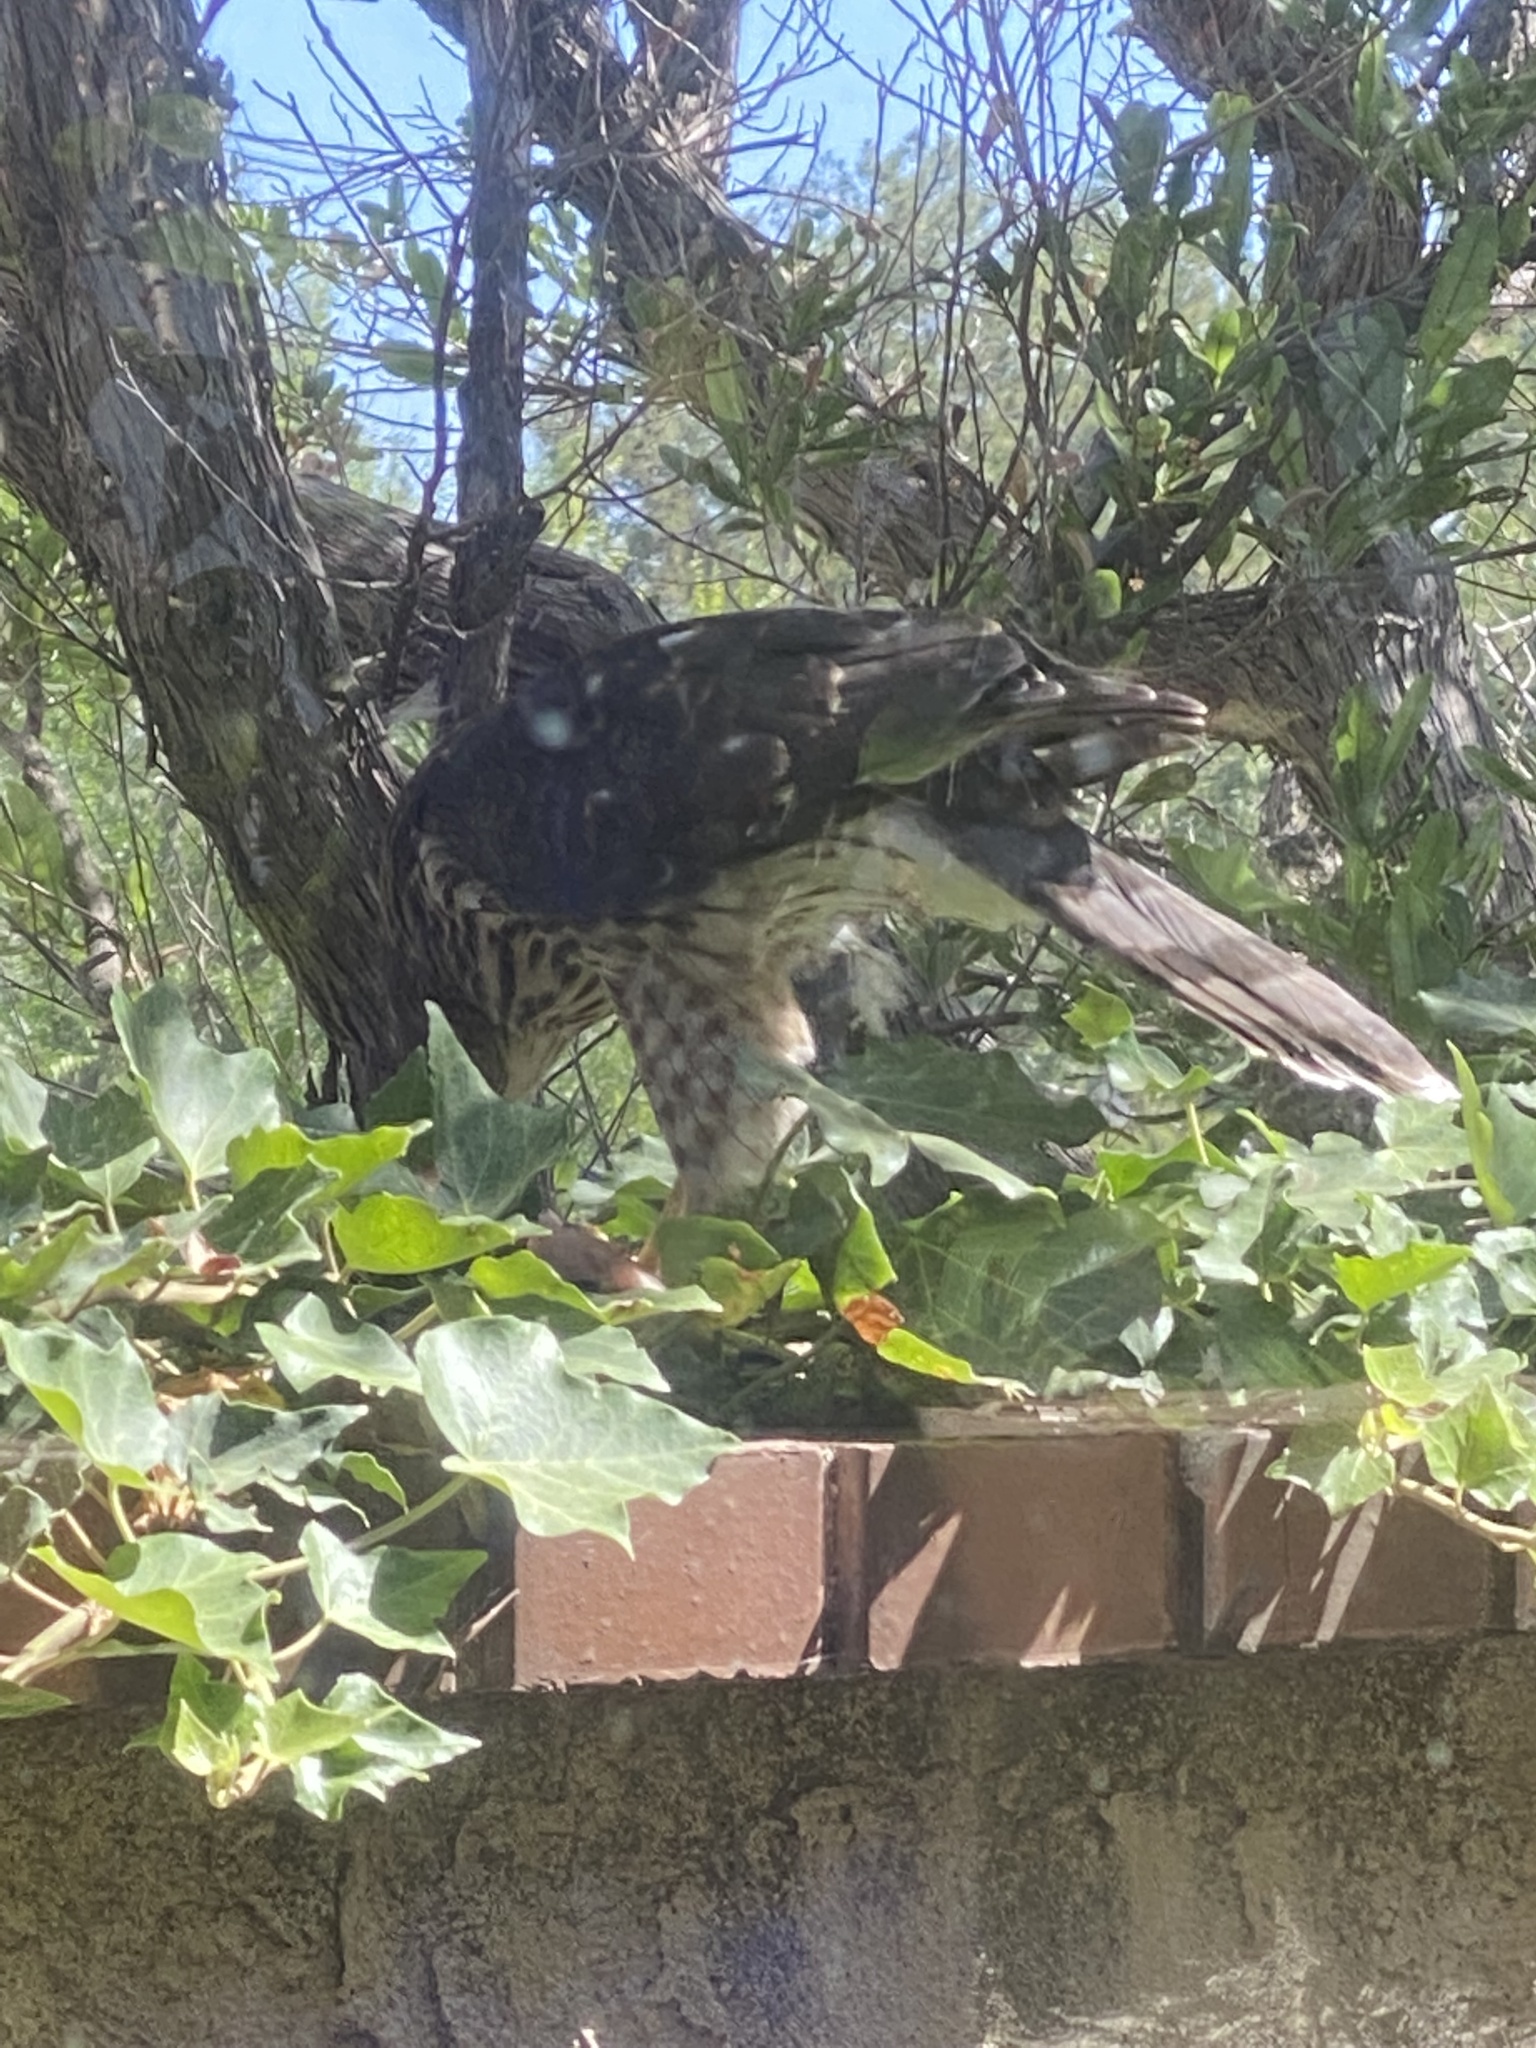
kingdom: Animalia
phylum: Chordata
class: Aves
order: Accipitriformes
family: Accipitridae
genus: Accipiter
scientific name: Accipiter cooperii
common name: Cooper's hawk
